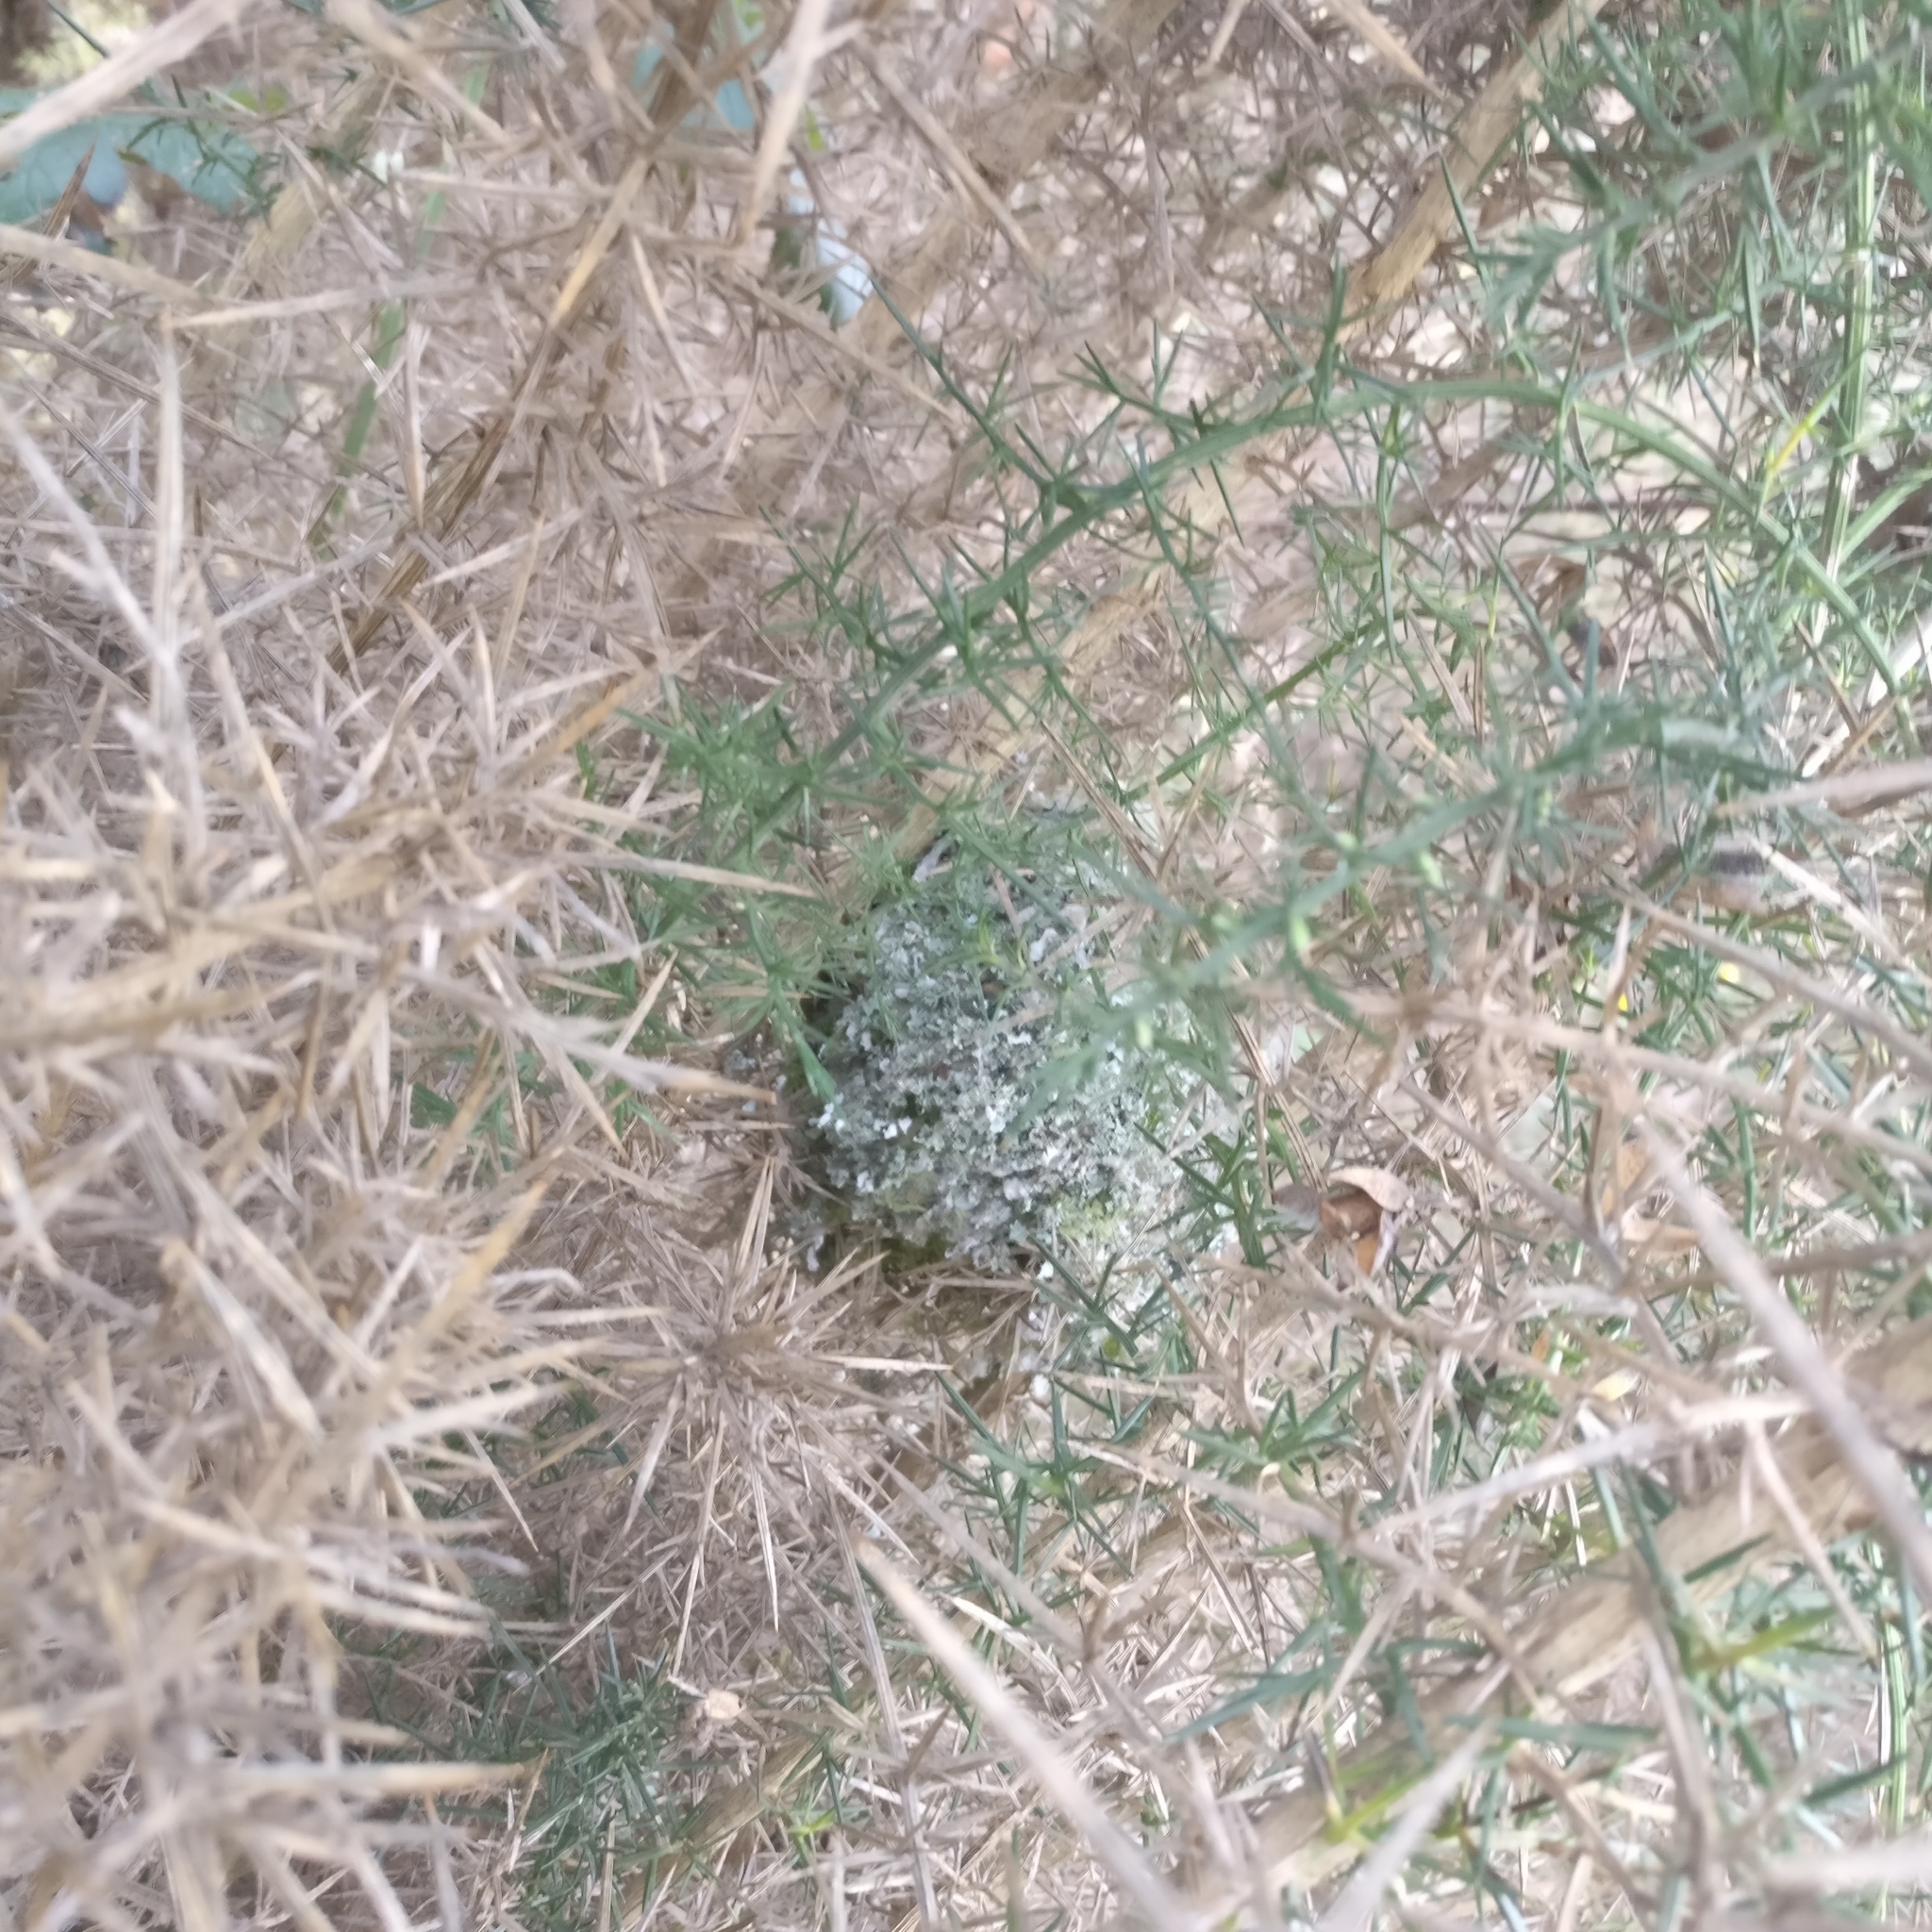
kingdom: Animalia
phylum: Chordata
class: Aves
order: Passeriformes
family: Aegithalidae
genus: Aegithalos
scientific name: Aegithalos caudatus
